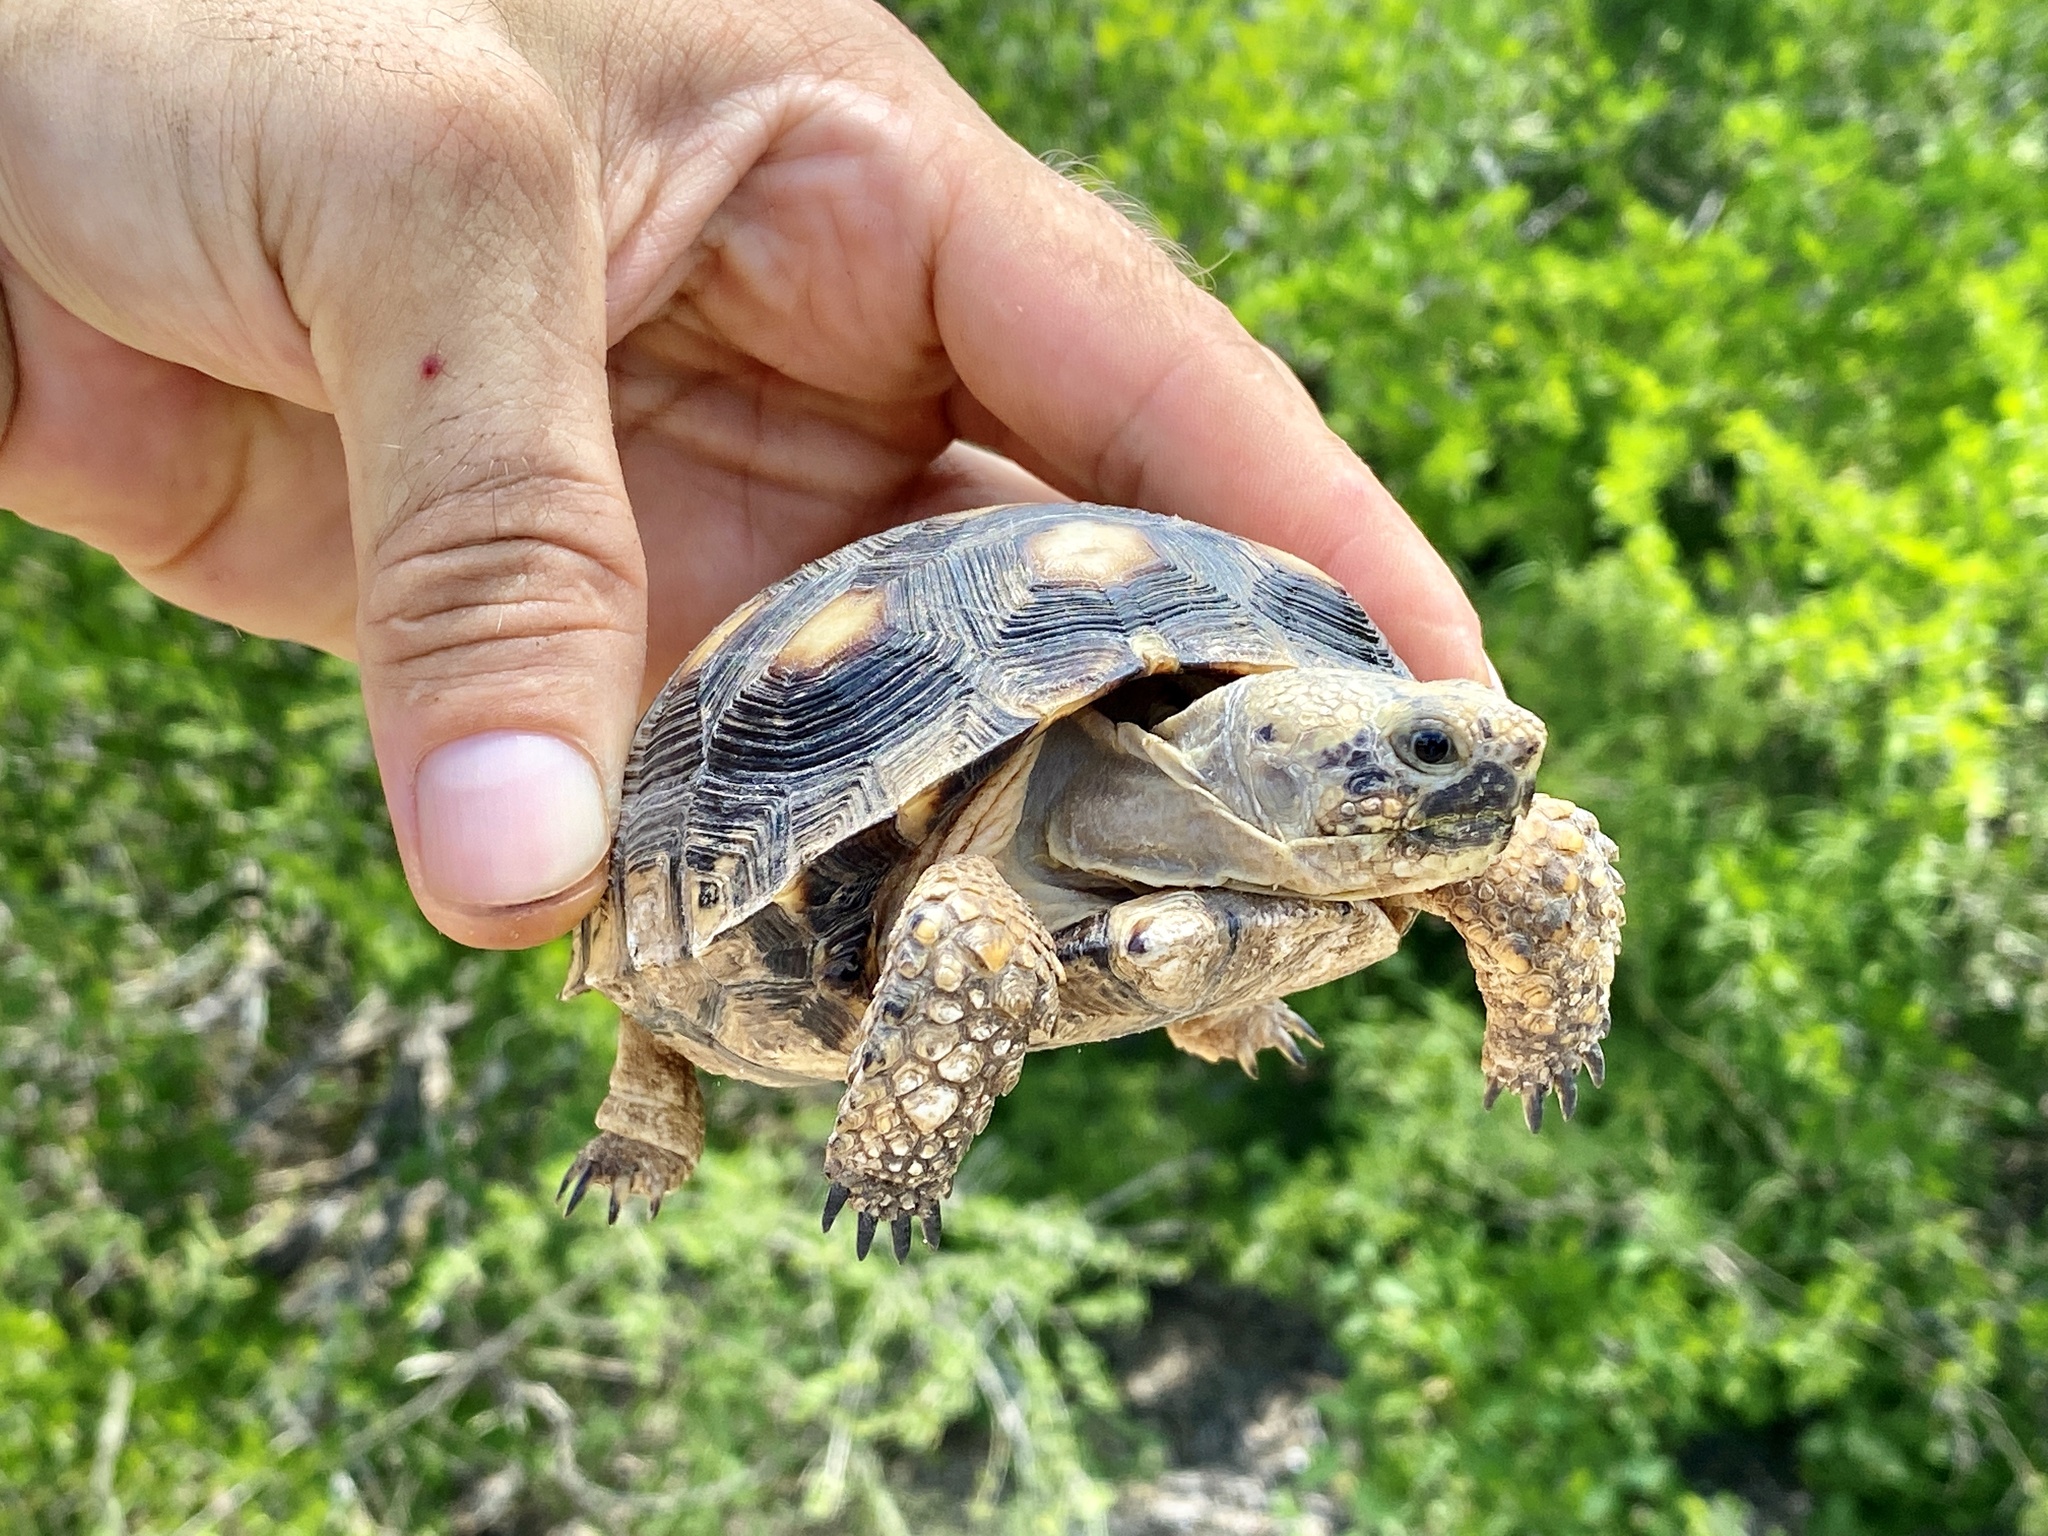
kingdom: Animalia
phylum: Chordata
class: Testudines
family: Testudinidae
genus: Gopherus
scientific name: Gopherus berlandieri
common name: Texas (gopher )tortoise
